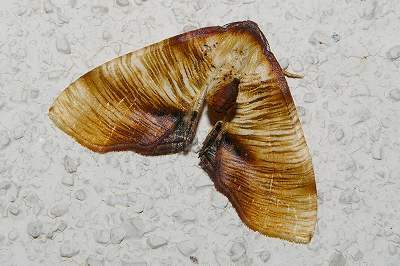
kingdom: Animalia
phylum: Arthropoda
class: Insecta
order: Lepidoptera
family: Geometridae
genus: Plagodis
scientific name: Plagodis dolabraria
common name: Scorched wing
